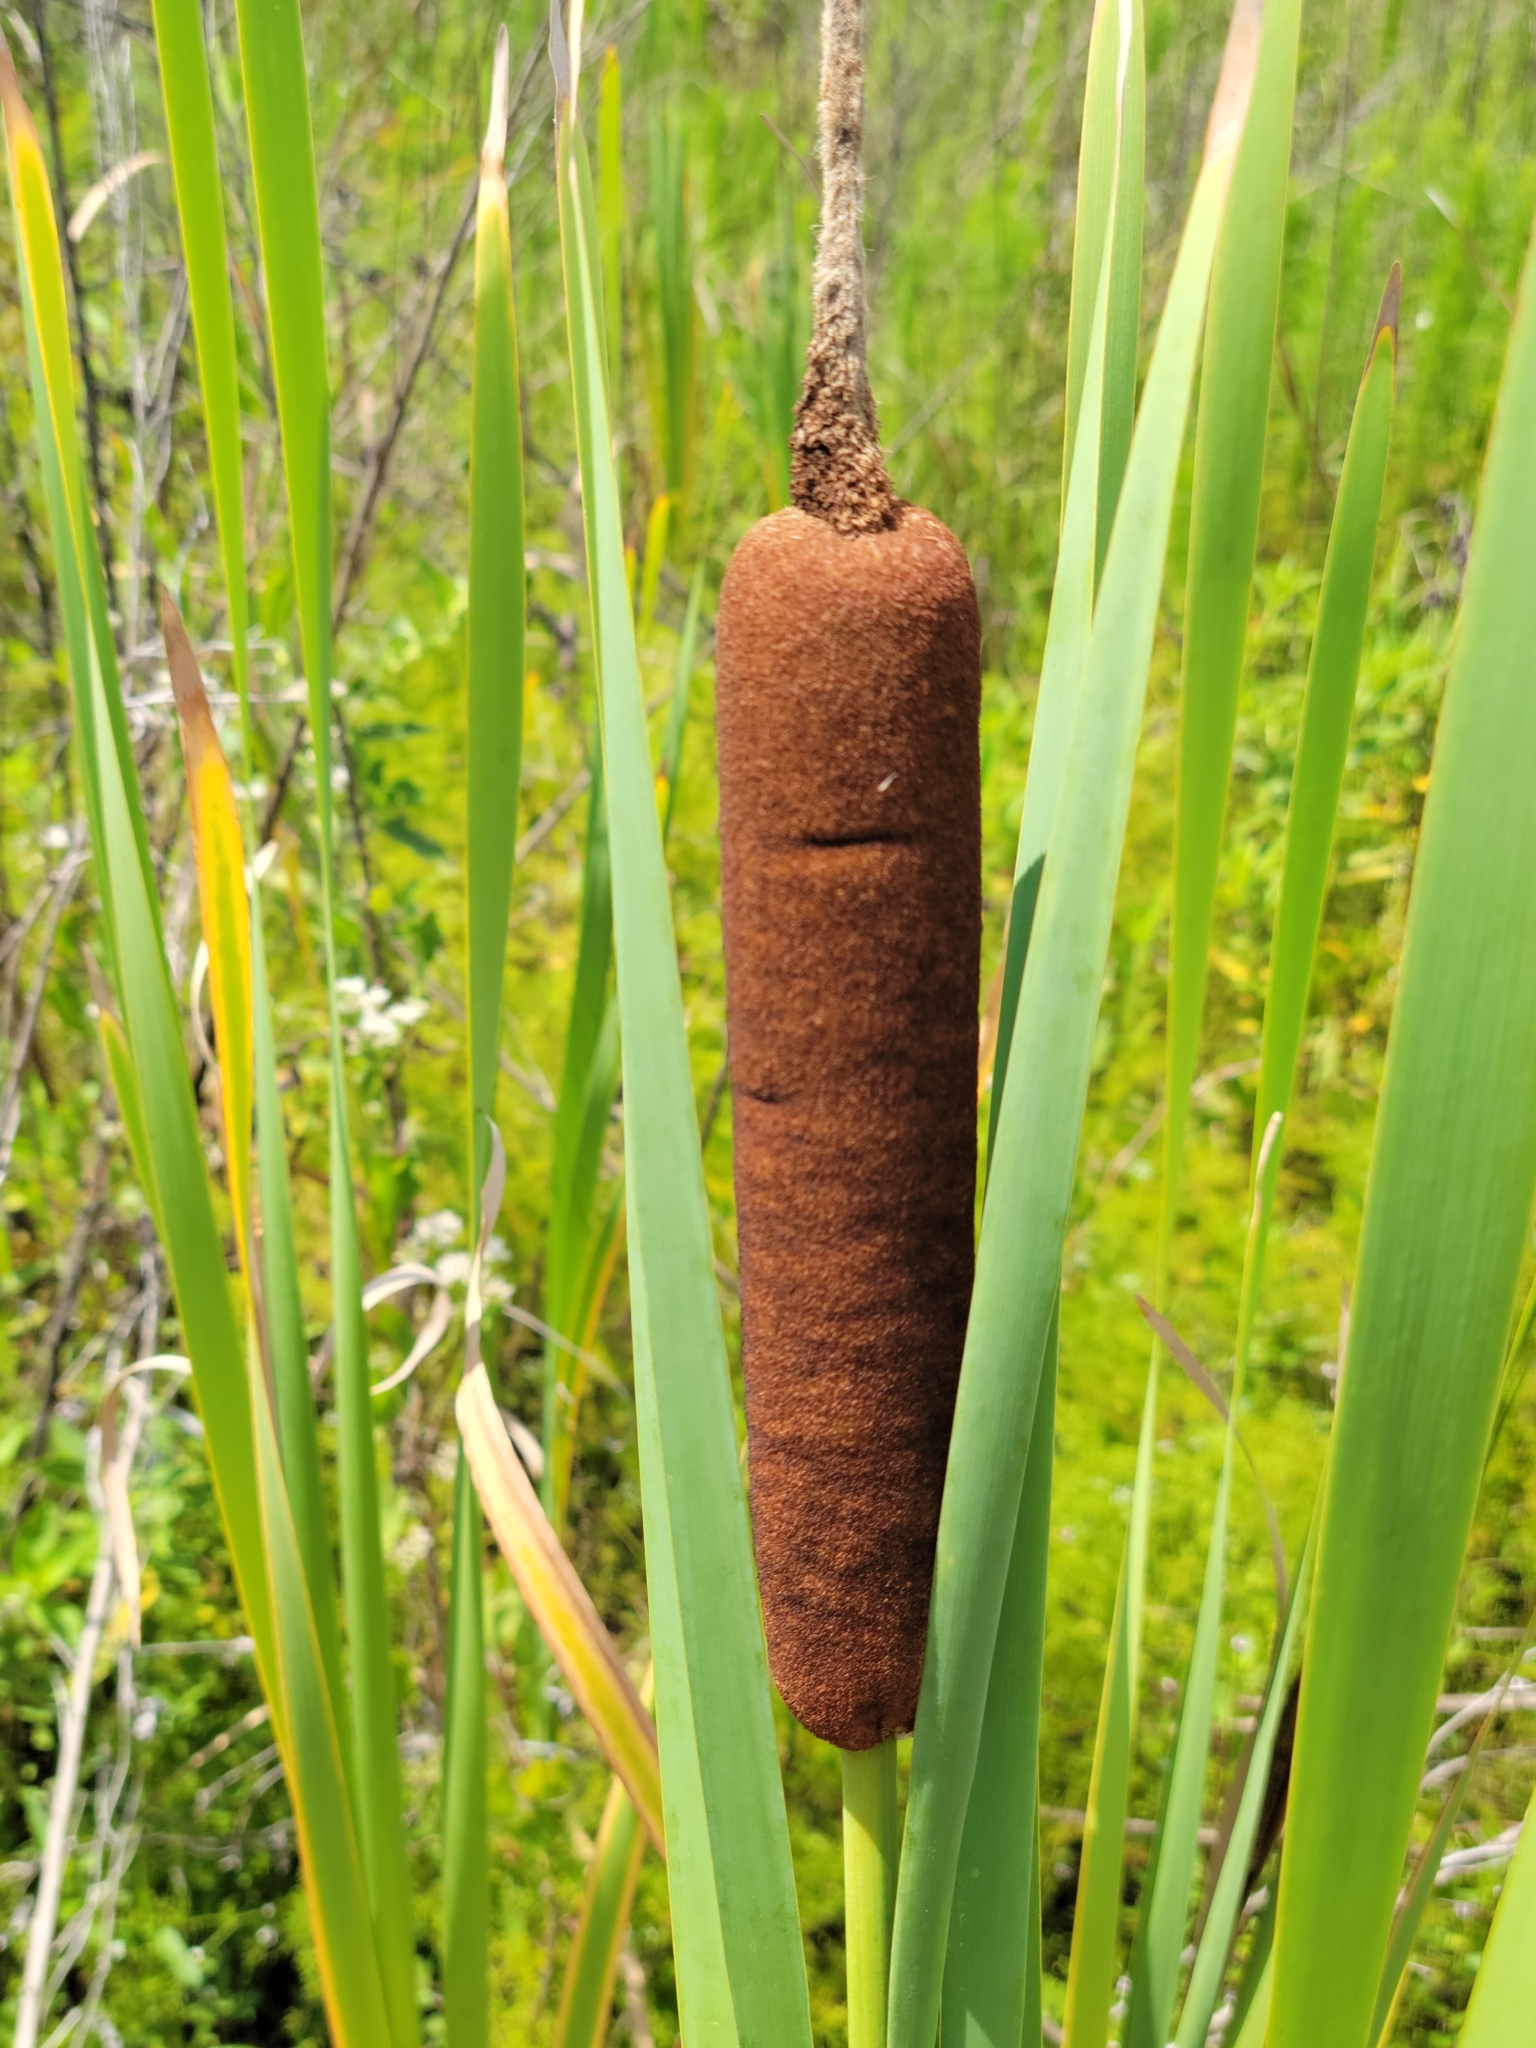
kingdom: Plantae
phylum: Tracheophyta
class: Liliopsida
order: Poales
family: Typhaceae
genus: Typha
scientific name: Typha latifolia
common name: Broadleaf cattail
